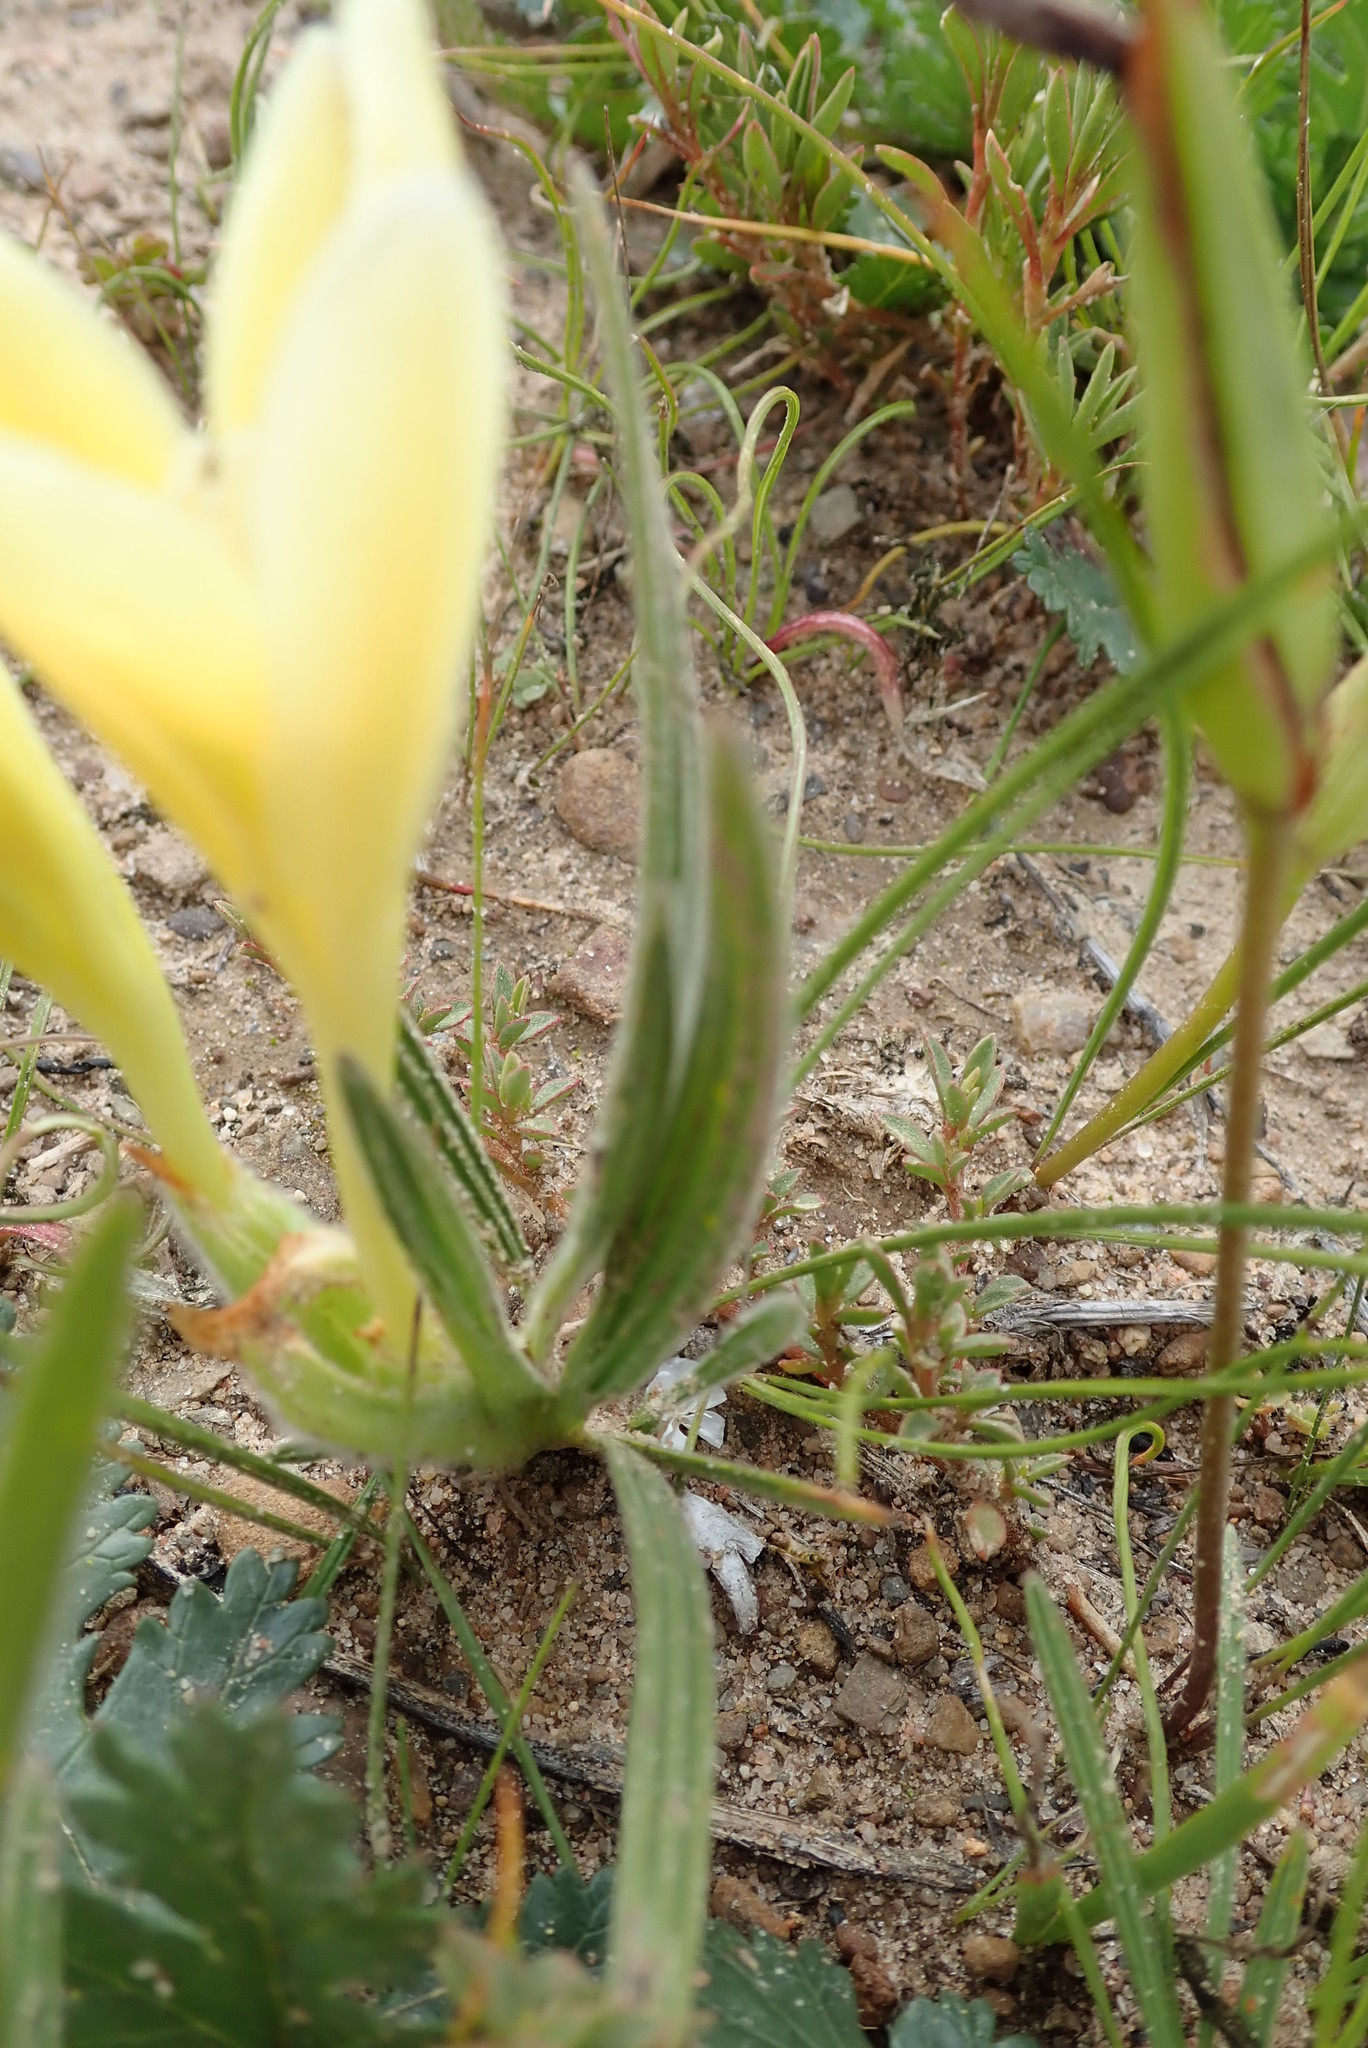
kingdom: Plantae
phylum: Tracheophyta
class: Liliopsida
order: Asparagales
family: Iridaceae
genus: Babiana
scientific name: Babiana vanzijliae
